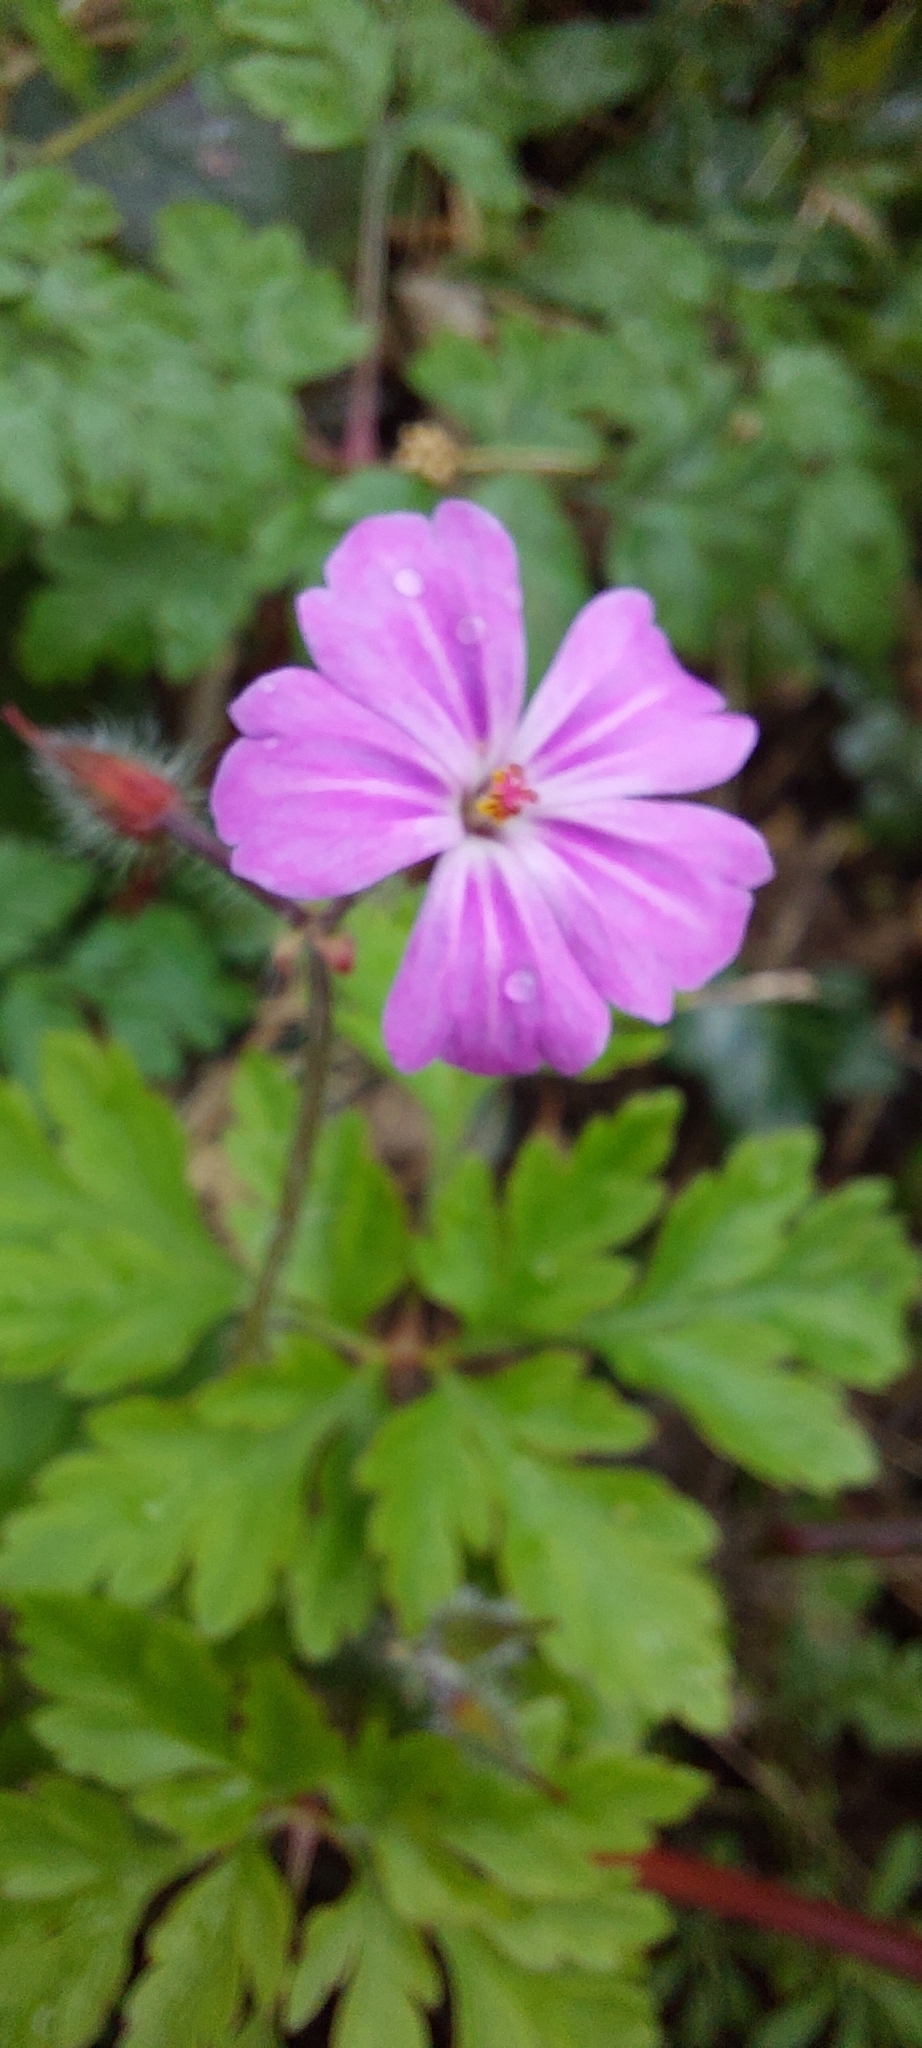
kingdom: Plantae
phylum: Tracheophyta
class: Magnoliopsida
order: Geraniales
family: Geraniaceae
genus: Geranium
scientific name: Geranium robertianum
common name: Herb-robert
